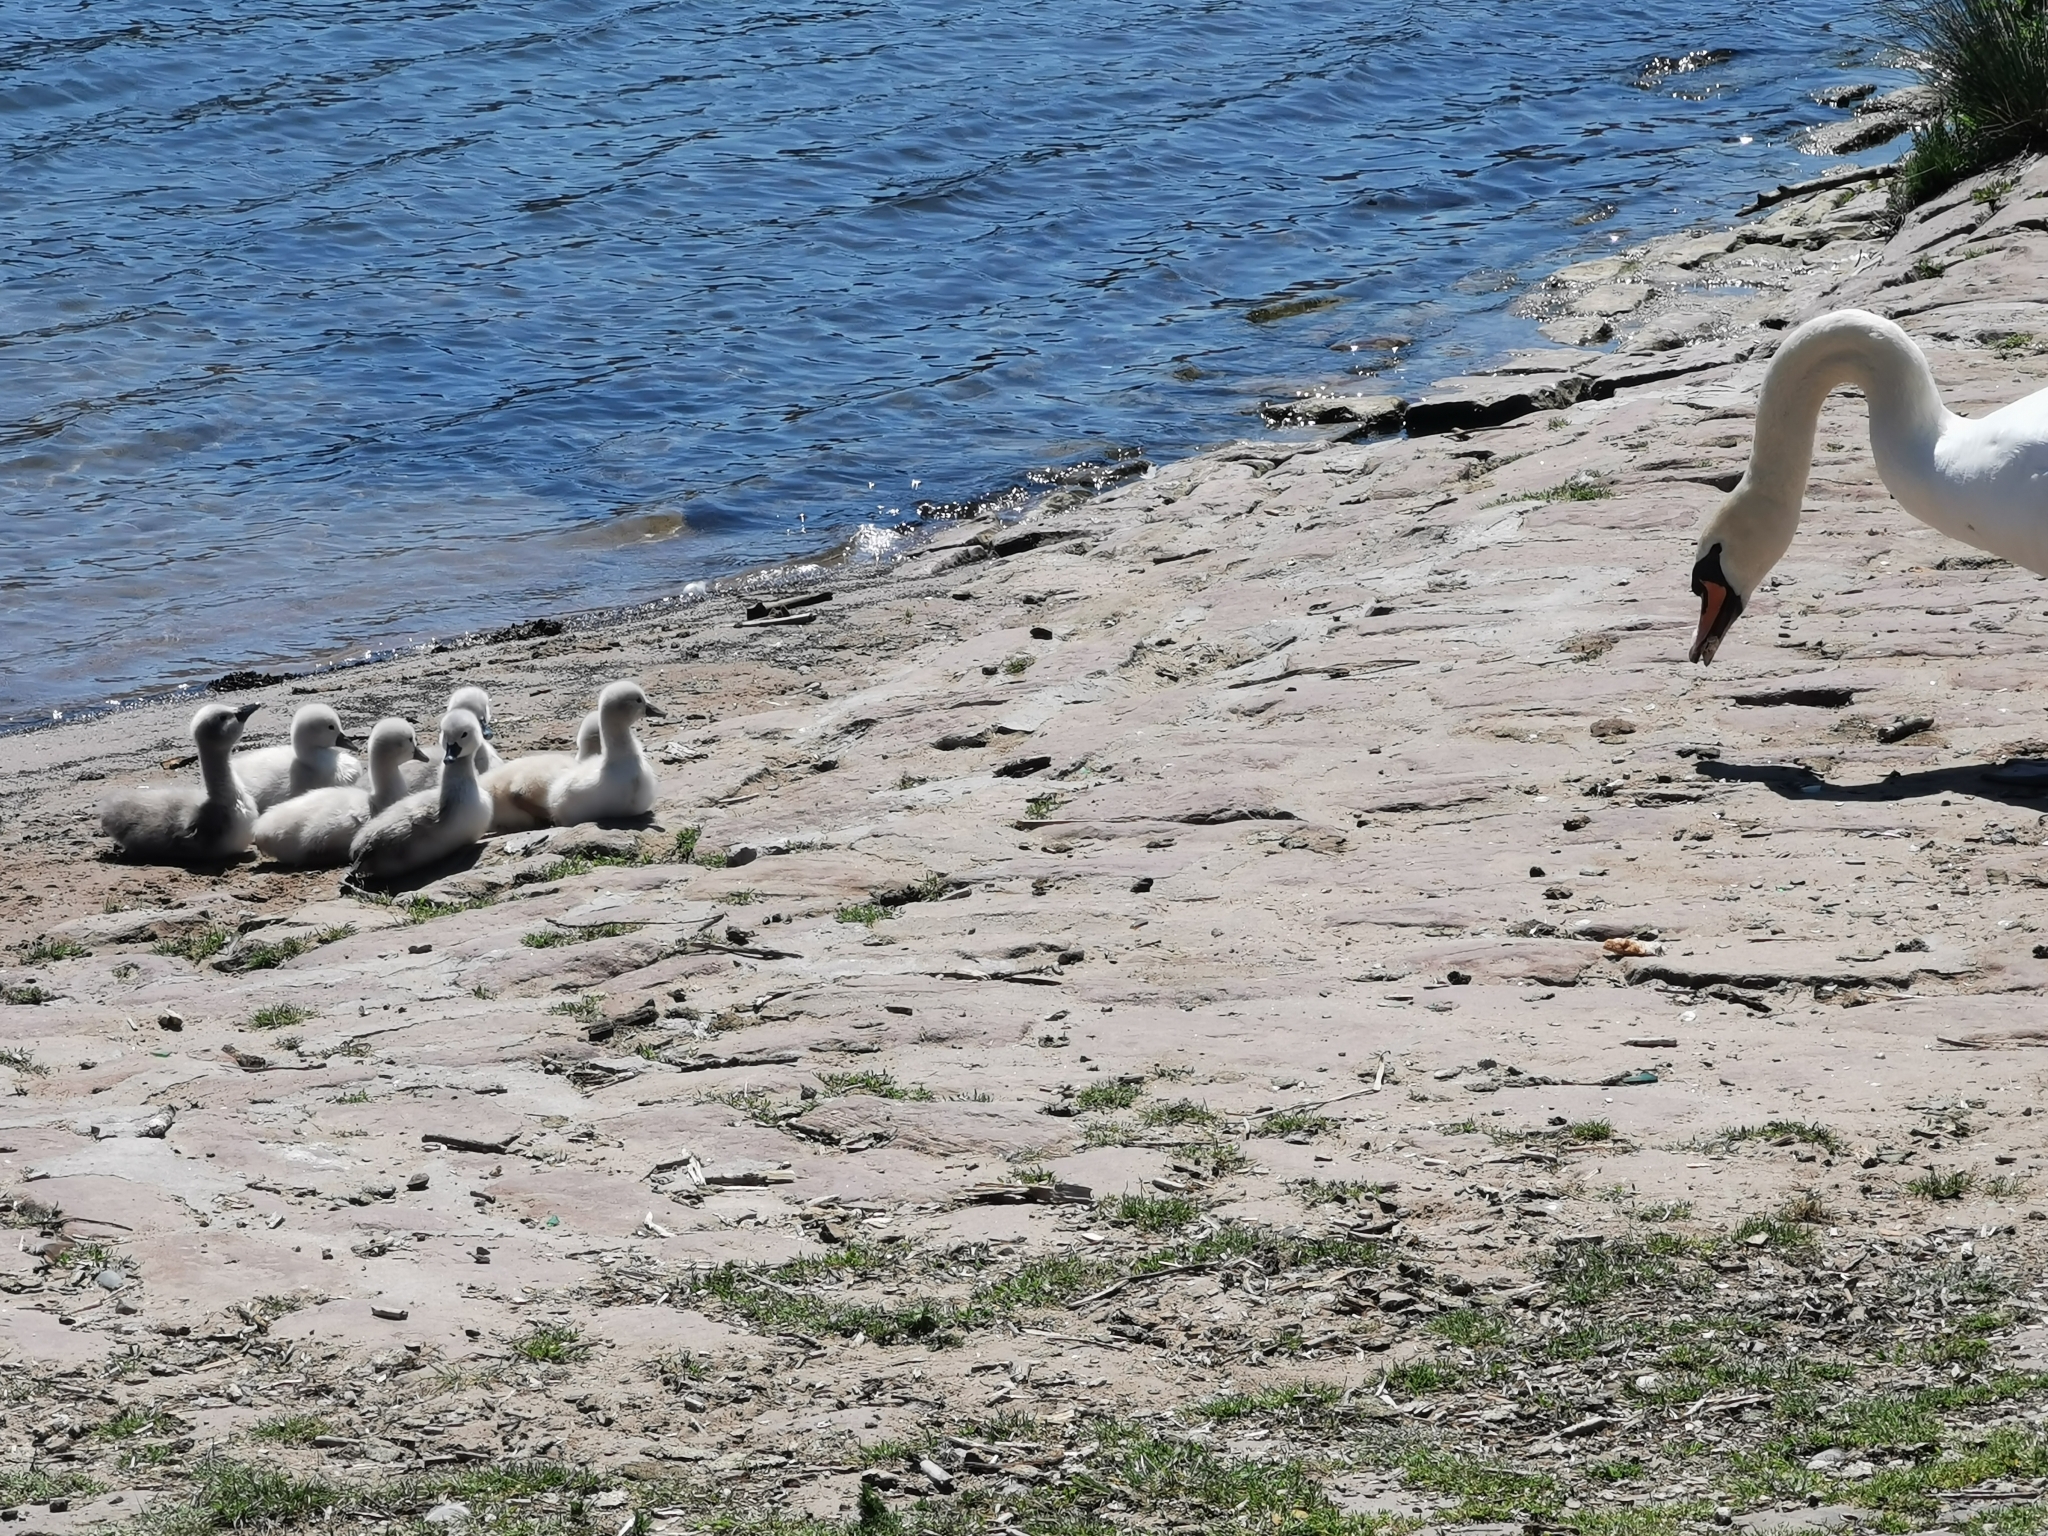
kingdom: Animalia
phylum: Chordata
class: Aves
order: Anseriformes
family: Anatidae
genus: Cygnus
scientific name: Cygnus olor
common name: Mute swan
